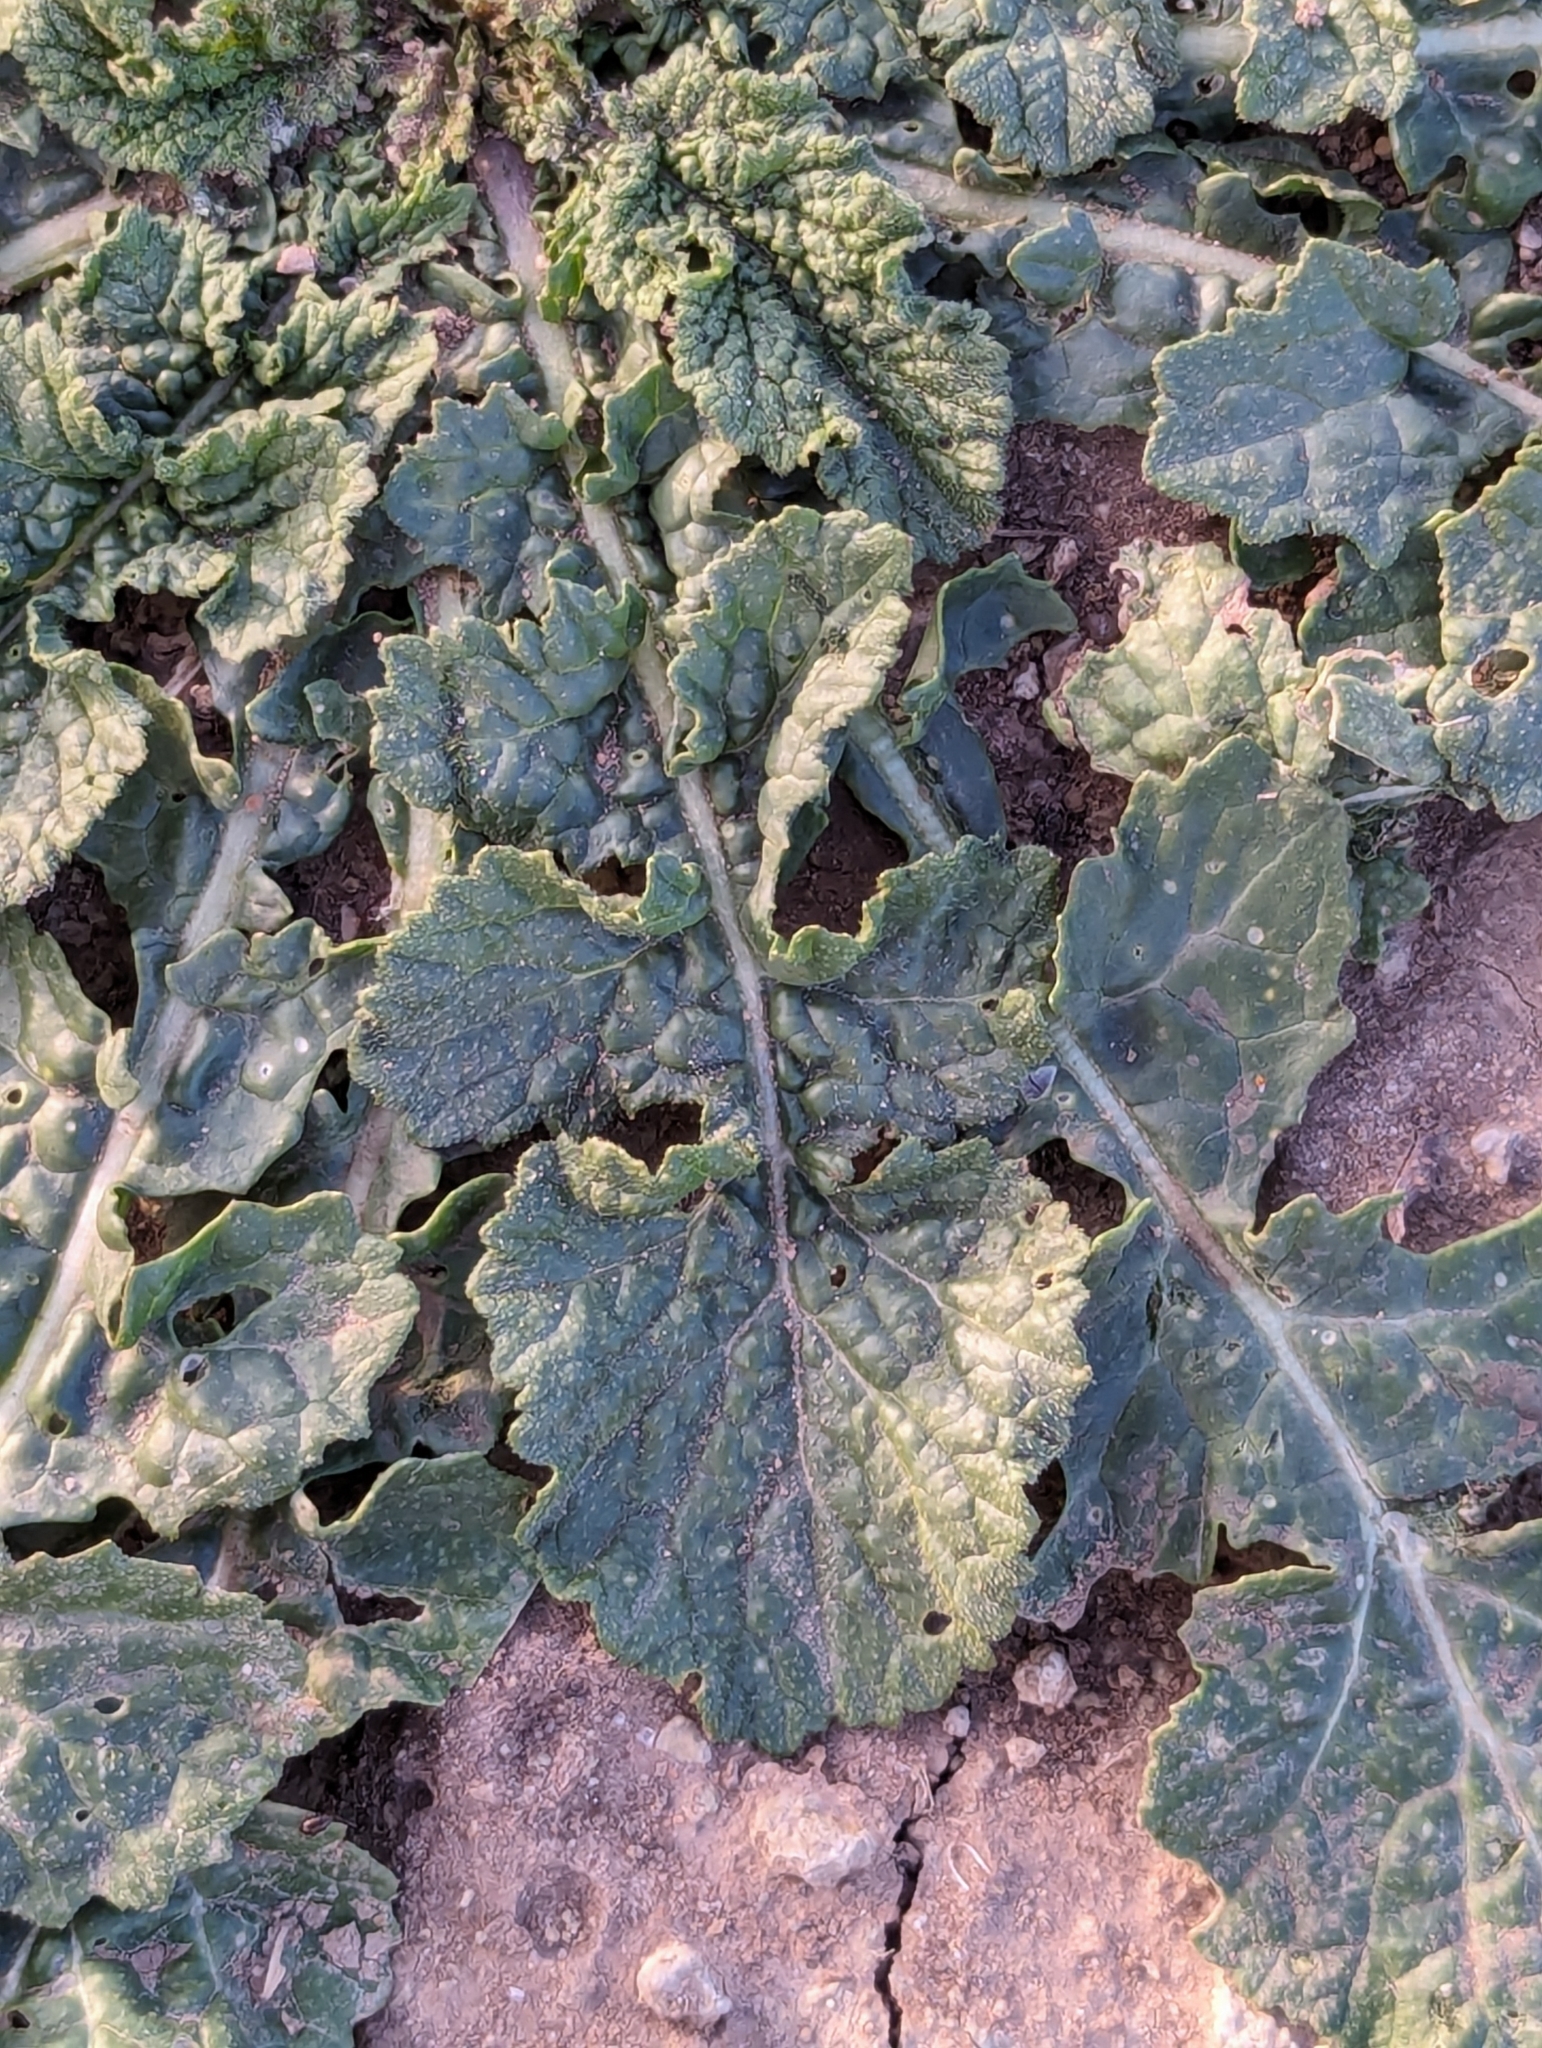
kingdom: Plantae
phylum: Tracheophyta
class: Magnoliopsida
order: Brassicales
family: Brassicaceae
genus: Rapistrum
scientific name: Rapistrum rugosum
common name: Annual bastardcabbage
